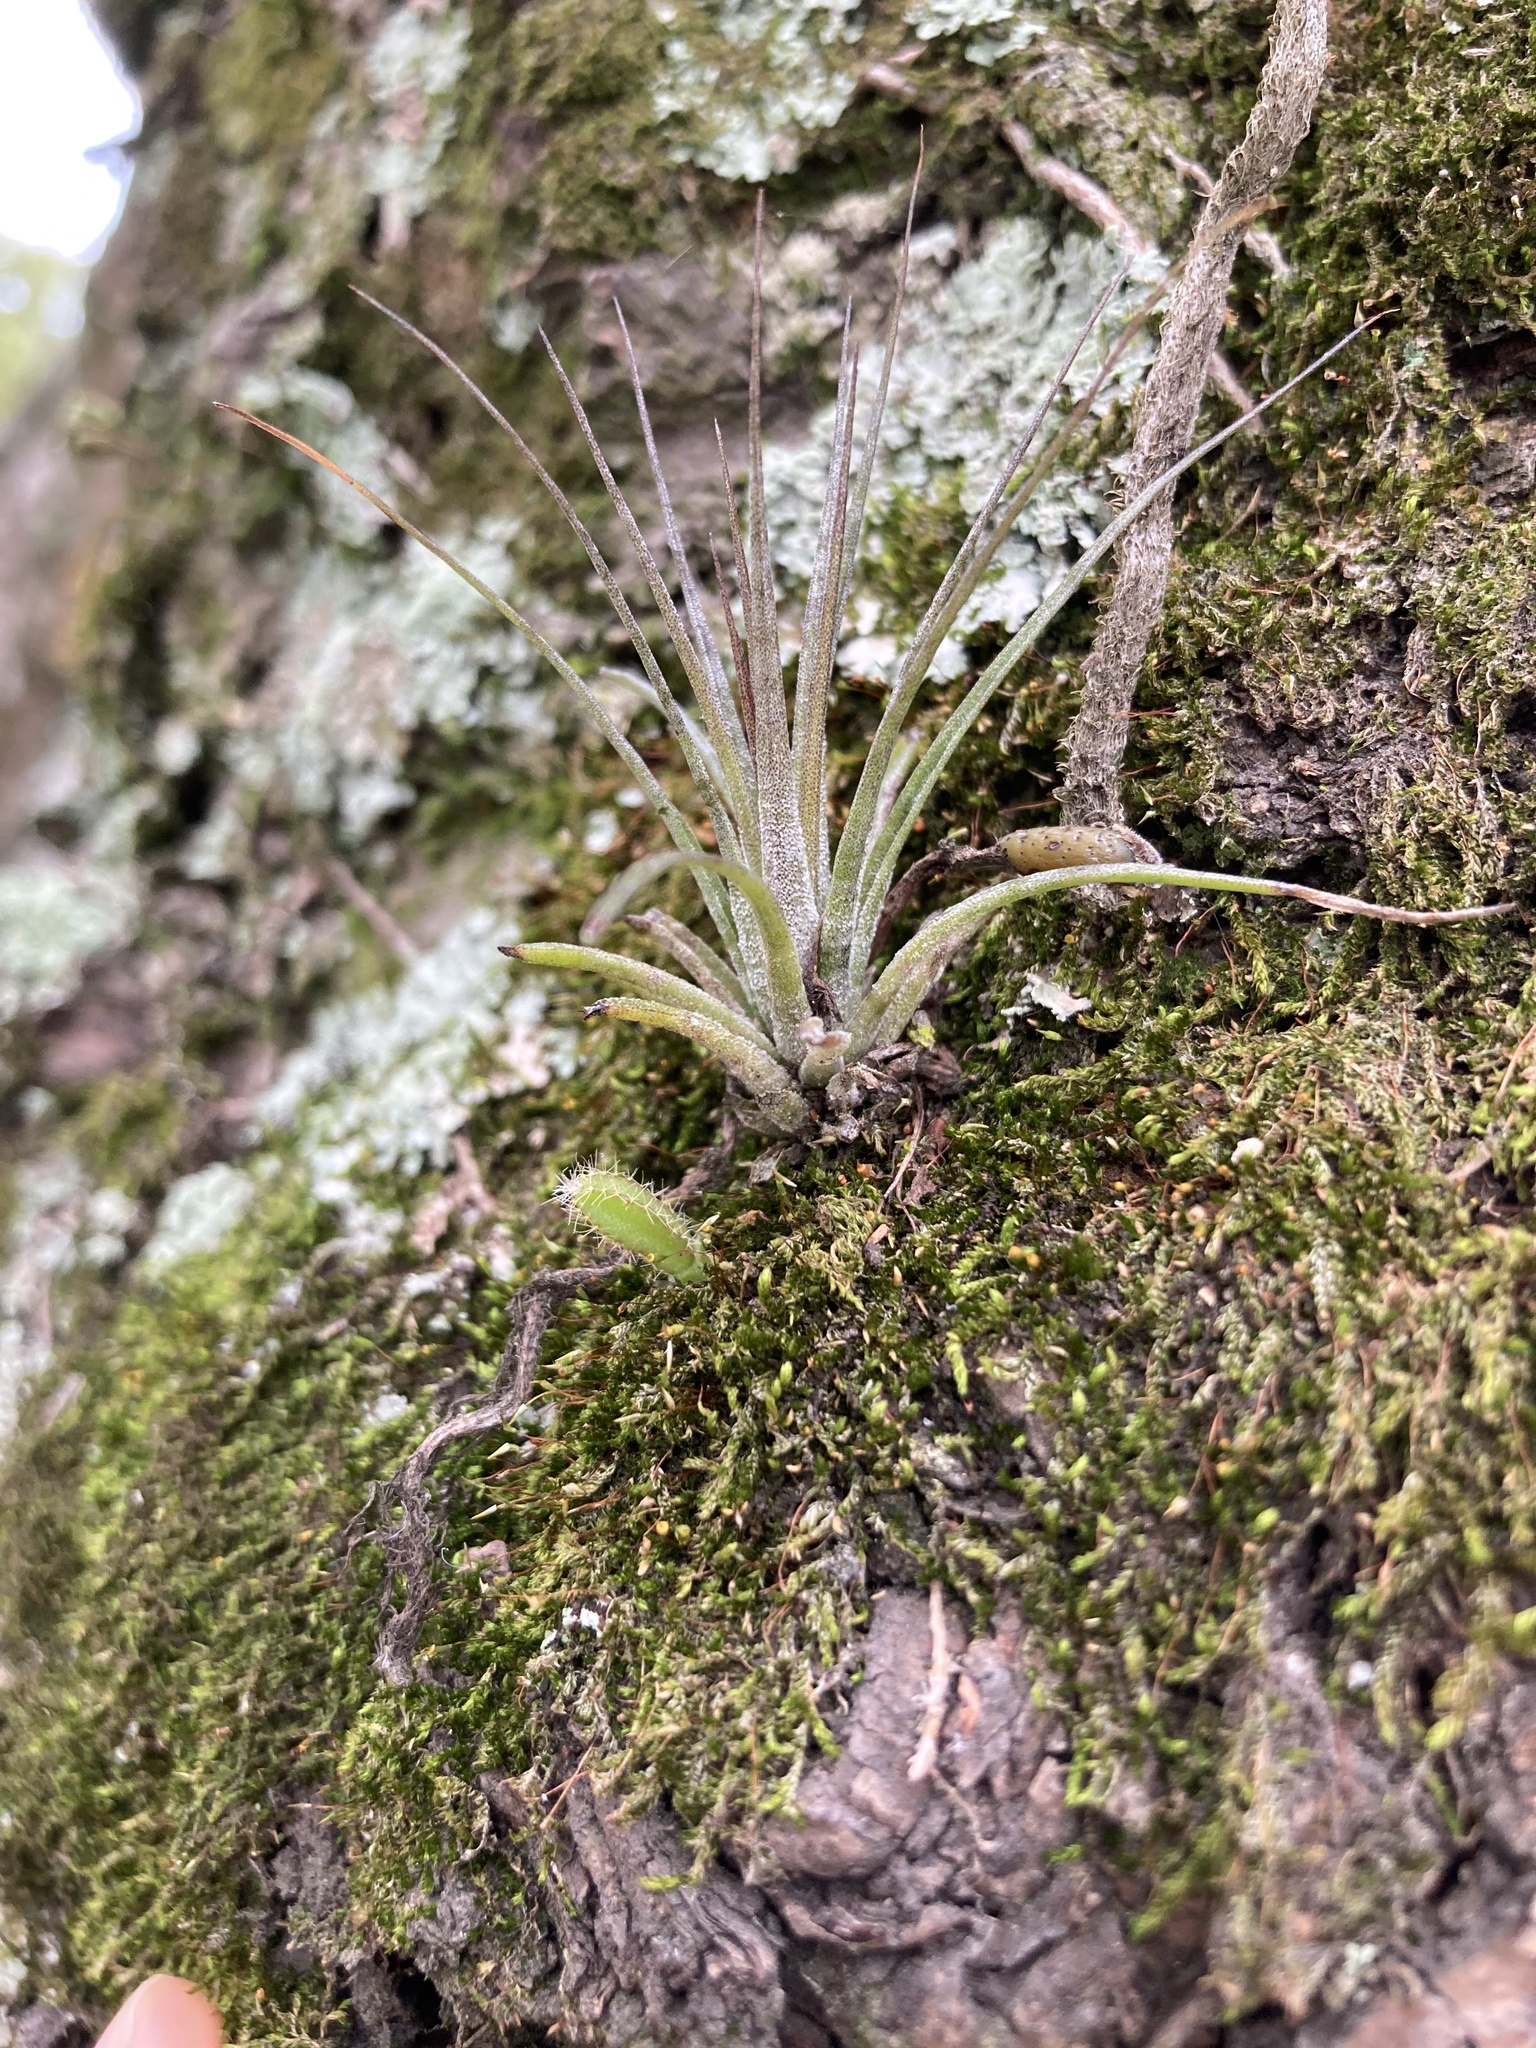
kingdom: Plantae
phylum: Tracheophyta
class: Liliopsida
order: Poales
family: Bromeliaceae
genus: Tillandsia
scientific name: Tillandsia stricta
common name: Airplant
